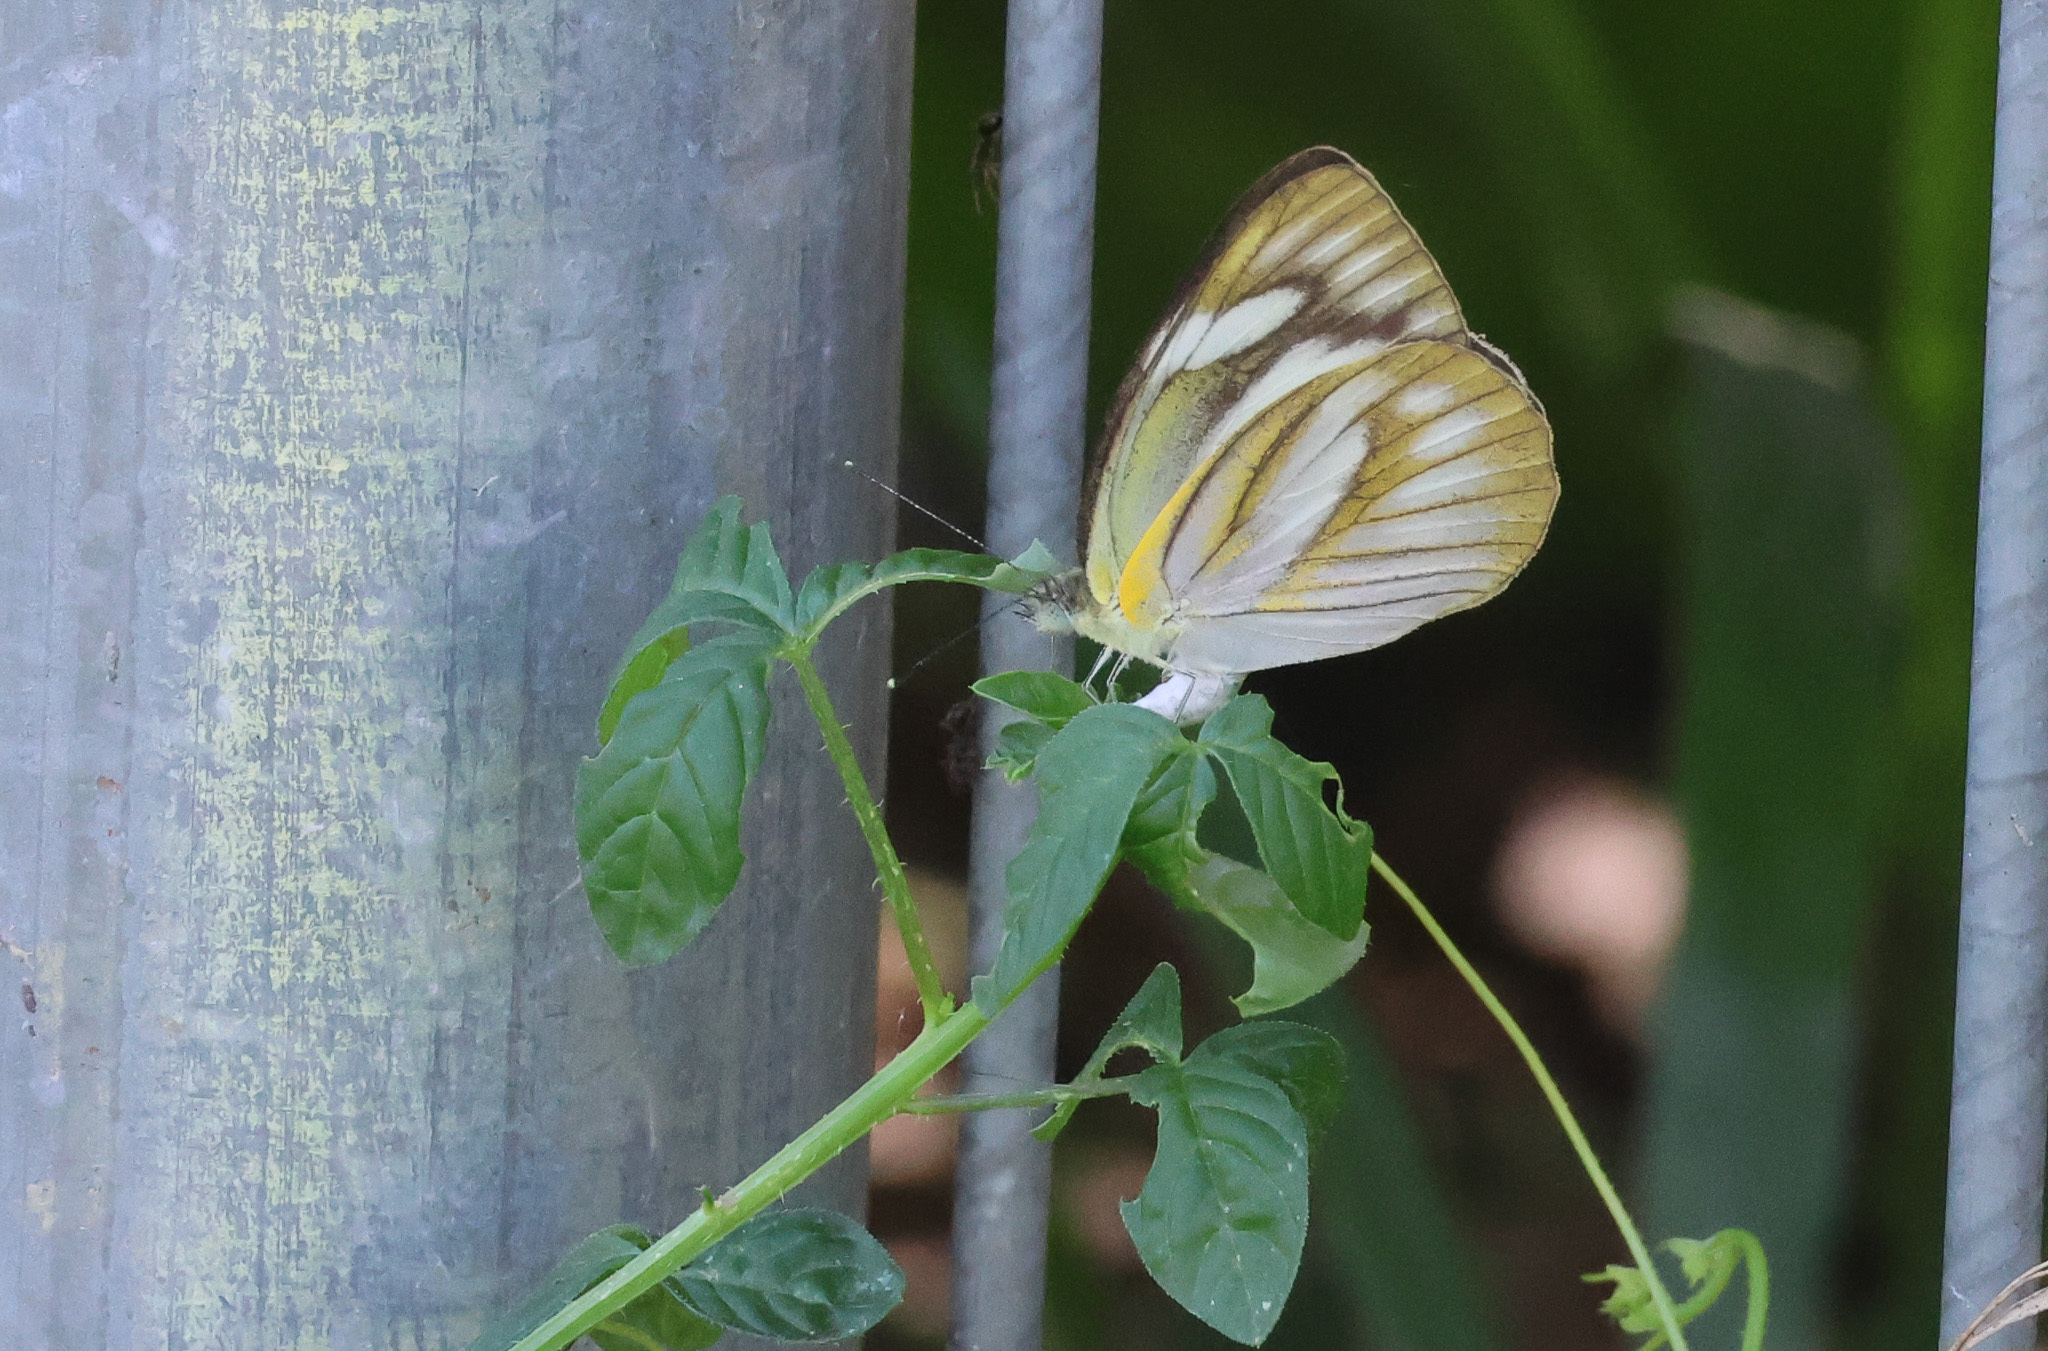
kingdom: Animalia
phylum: Arthropoda
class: Insecta
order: Lepidoptera
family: Pieridae
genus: Appias
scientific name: Appias libythea
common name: Striped albatross
